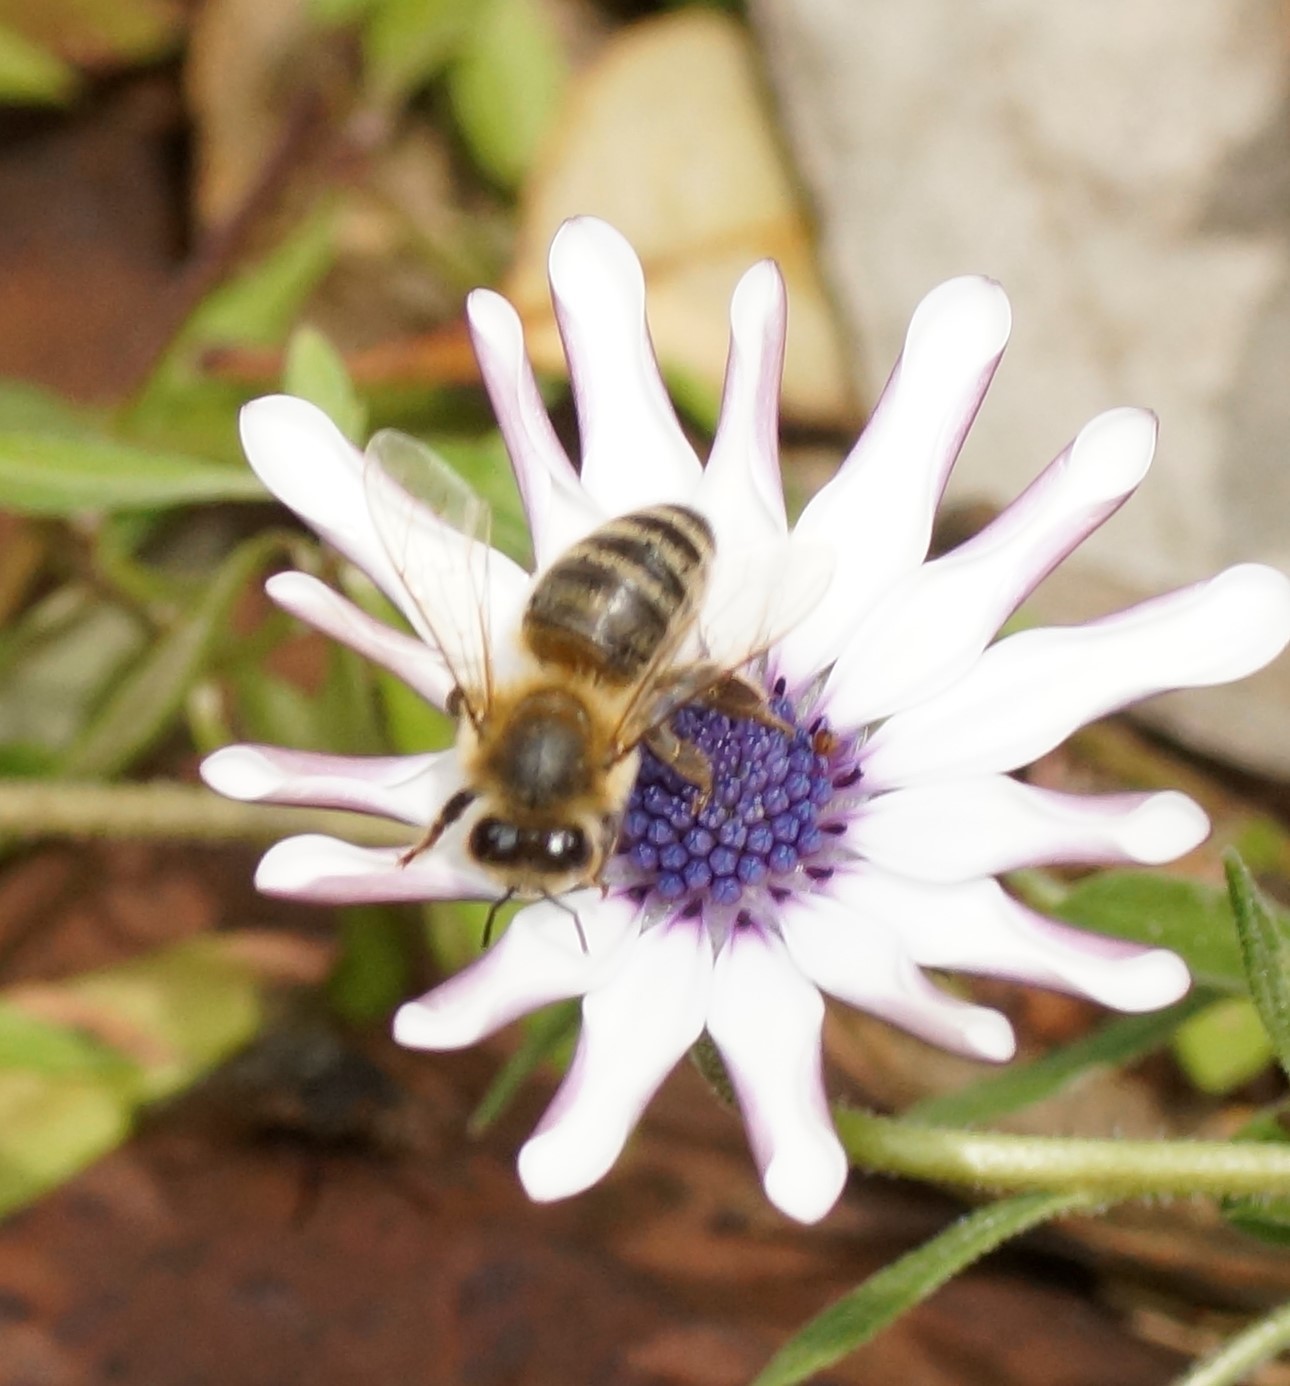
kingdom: Animalia
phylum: Arthropoda
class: Insecta
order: Hymenoptera
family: Apidae
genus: Apis
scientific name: Apis mellifera
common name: Honey bee
